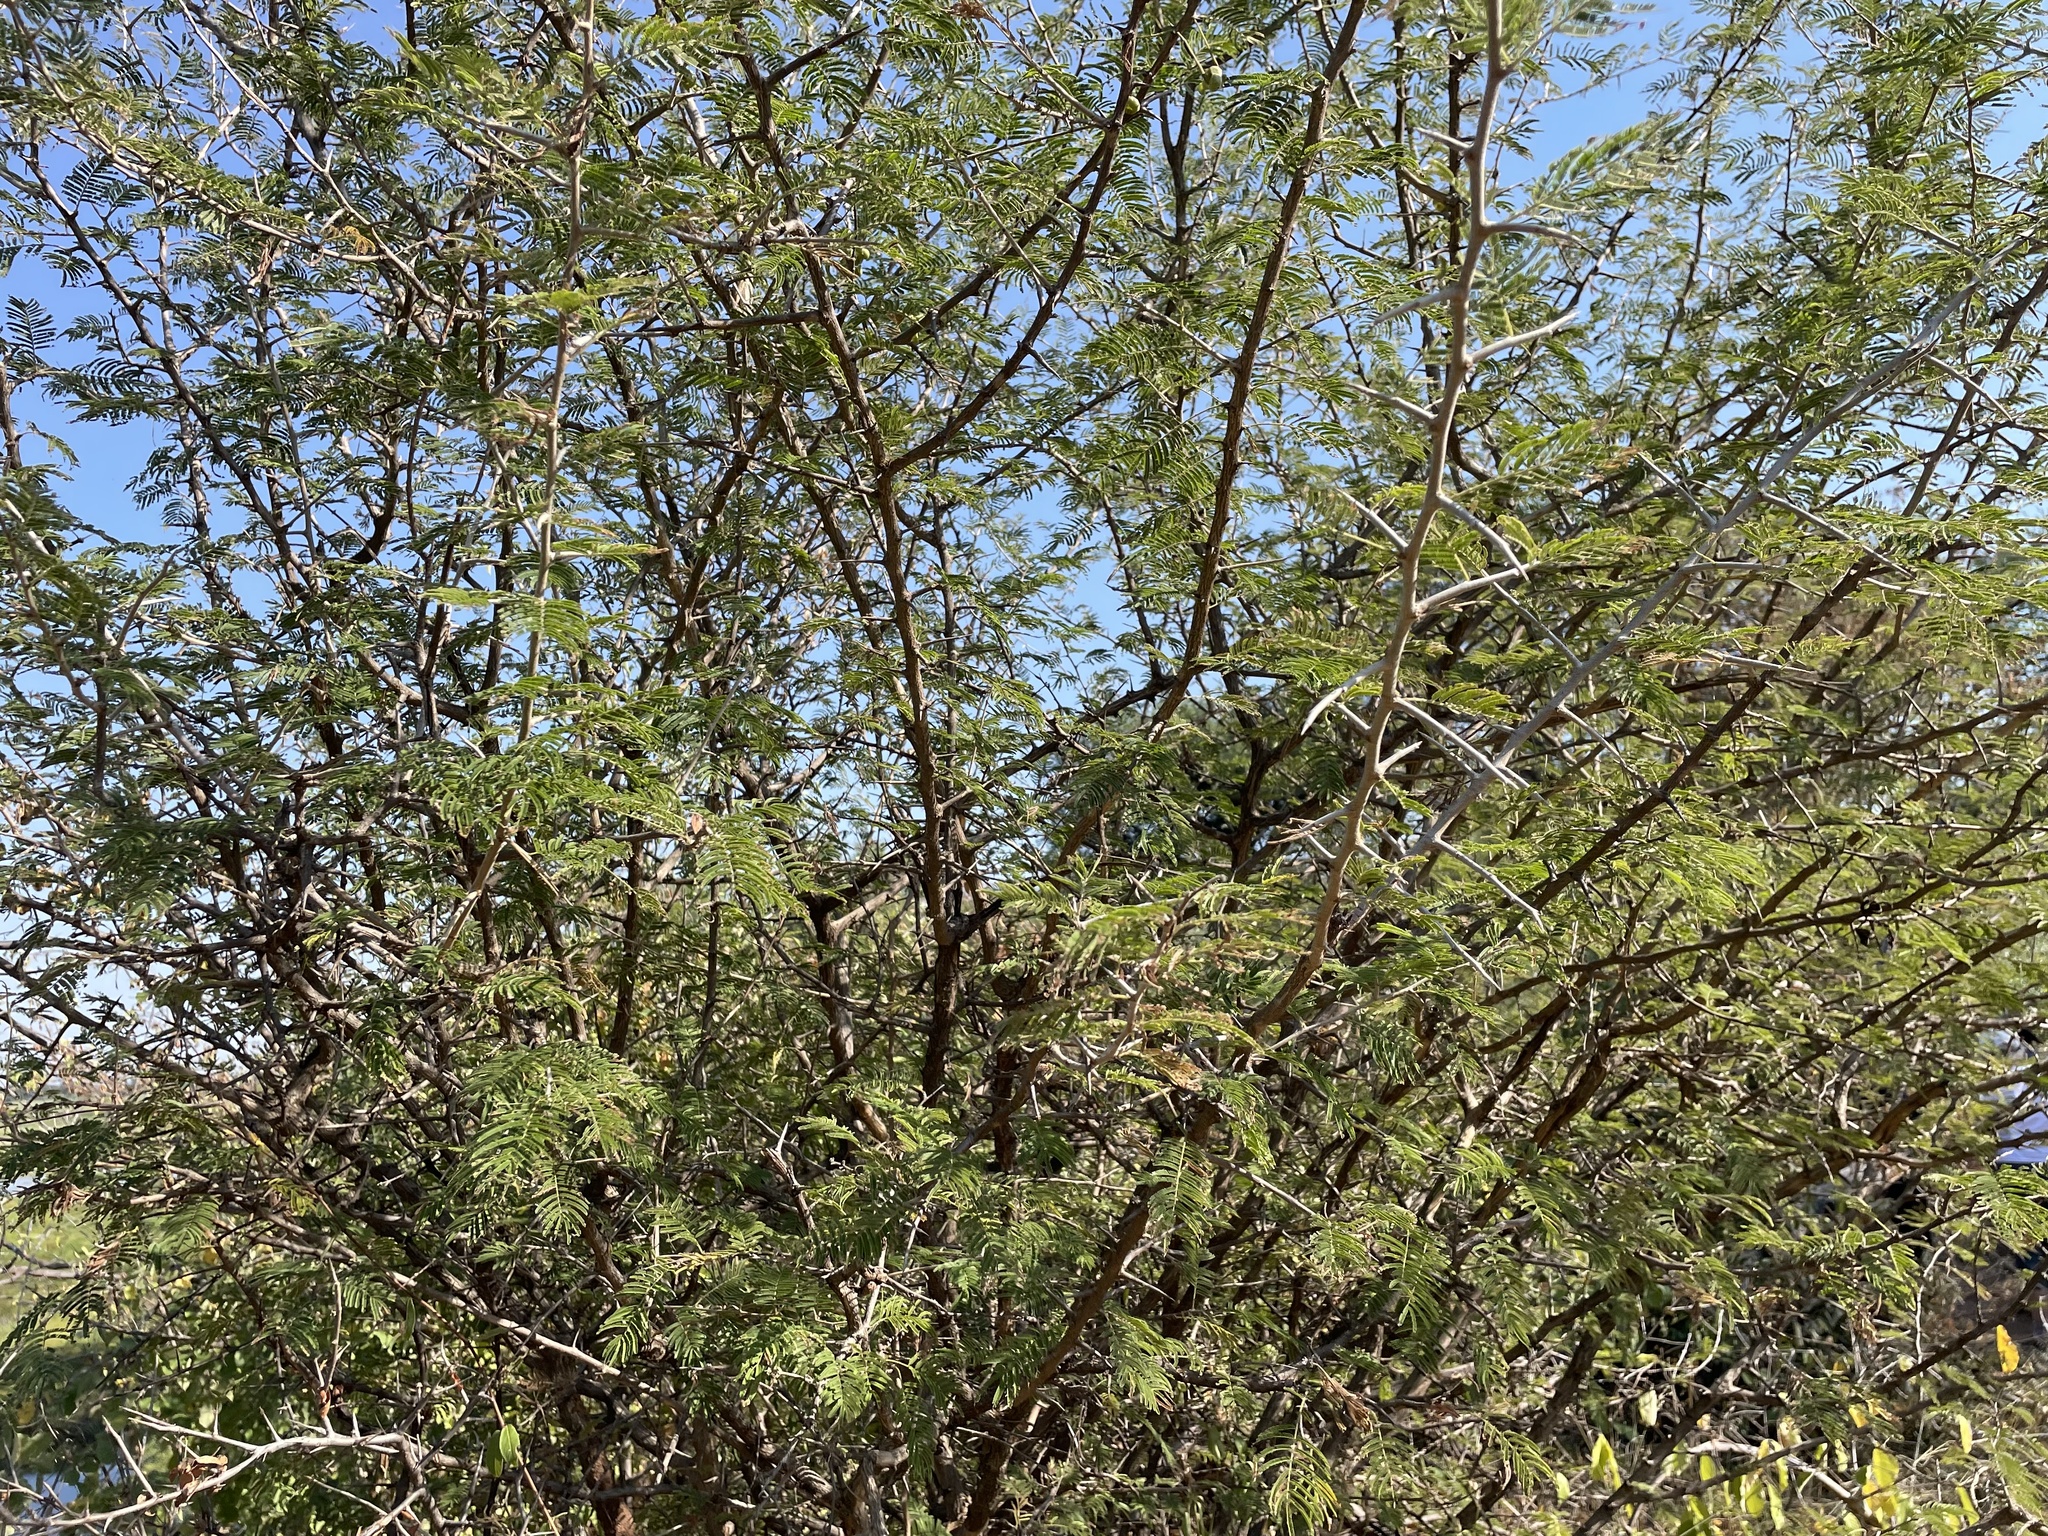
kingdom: Plantae
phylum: Tracheophyta
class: Magnoliopsida
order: Fabales
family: Fabaceae
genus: Dichrostachys
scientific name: Dichrostachys cinerea
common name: Sicklebush
